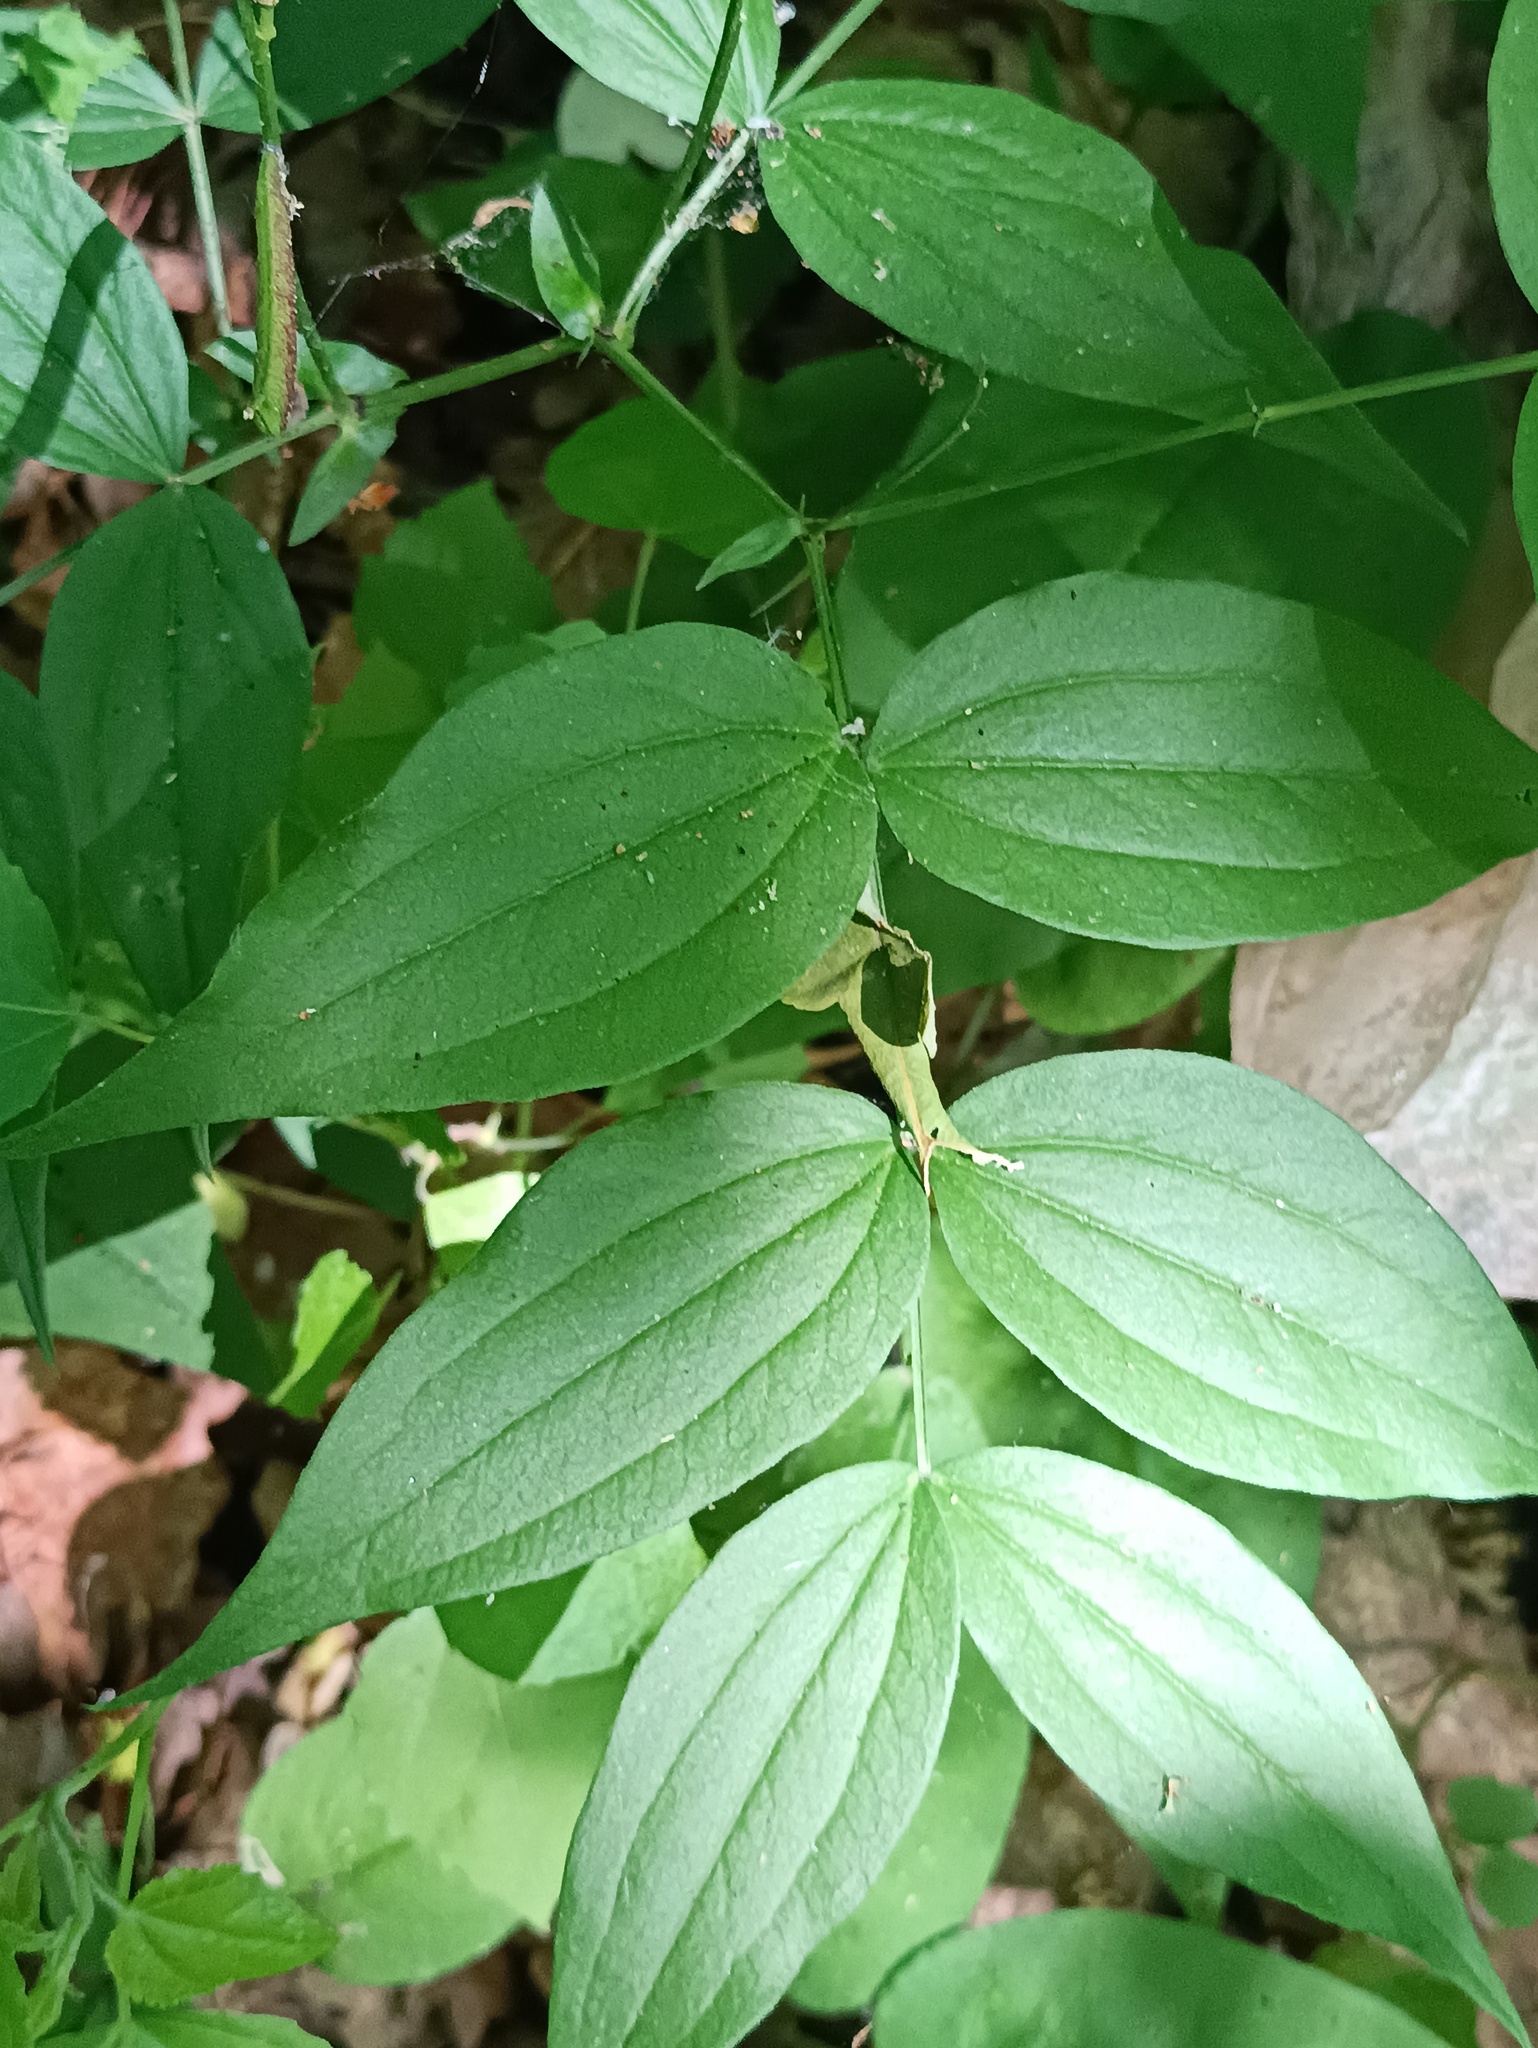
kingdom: Plantae
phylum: Tracheophyta
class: Magnoliopsida
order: Fabales
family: Fabaceae
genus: Lathyrus
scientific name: Lathyrus vernus
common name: Spring pea
